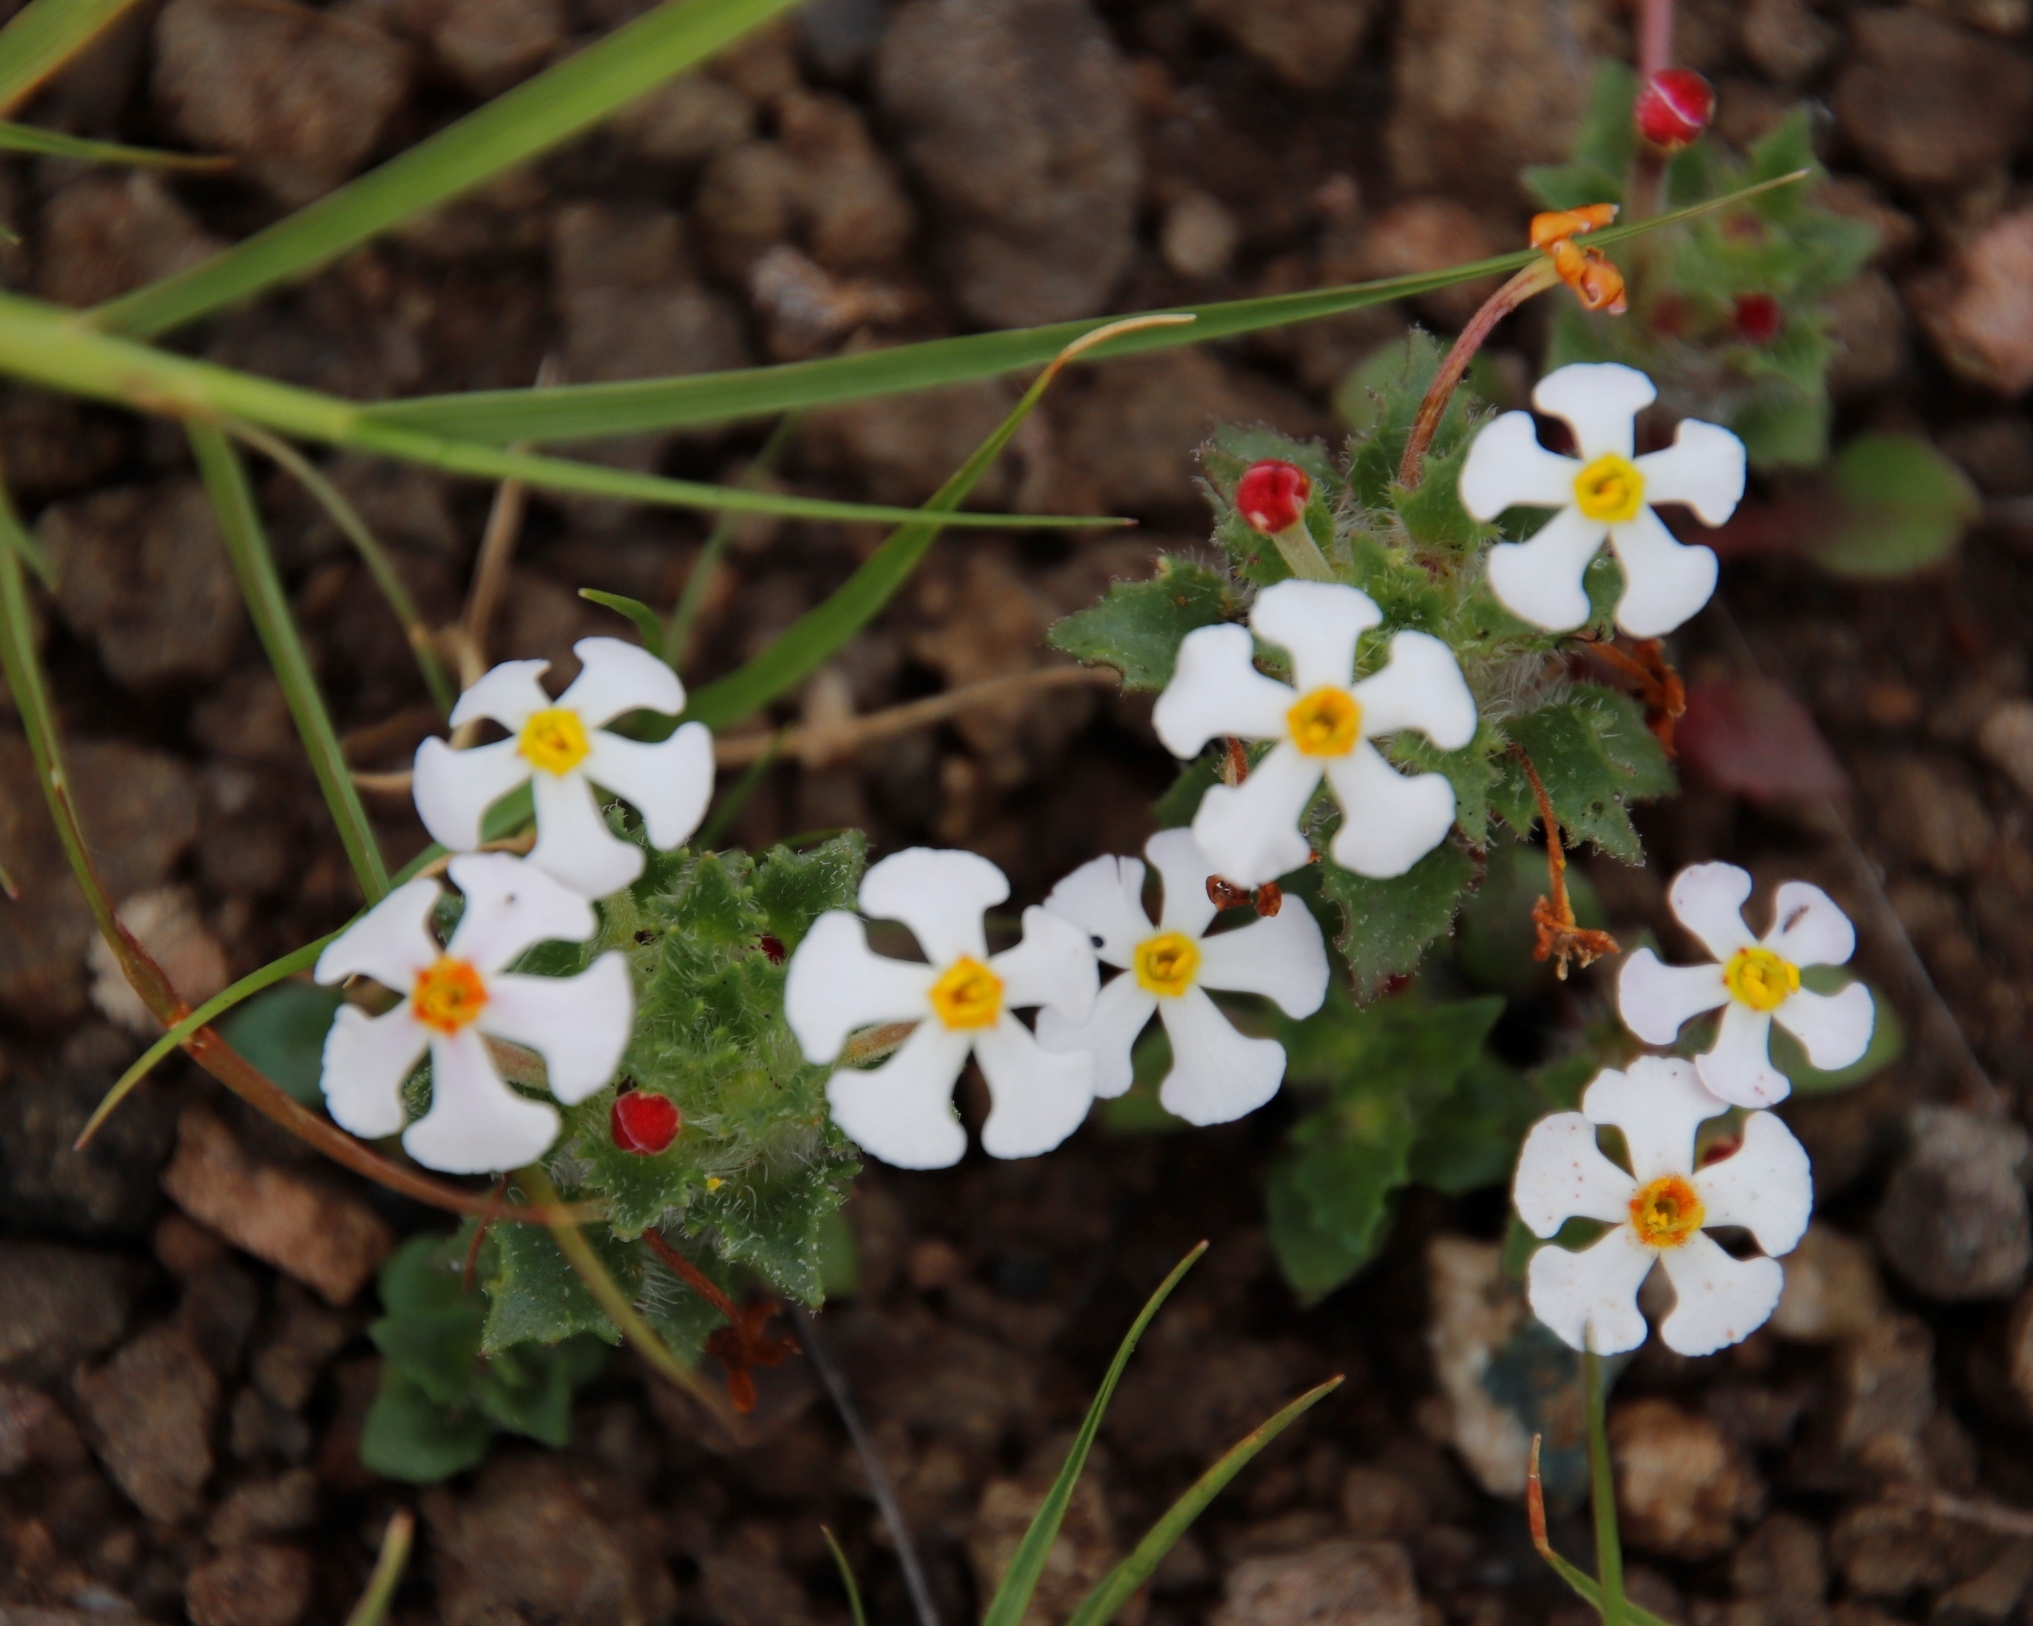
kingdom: Plantae
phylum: Tracheophyta
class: Magnoliopsida
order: Lamiales
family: Scrophulariaceae
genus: Zaluzianskya
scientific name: Zaluzianskya crocea
